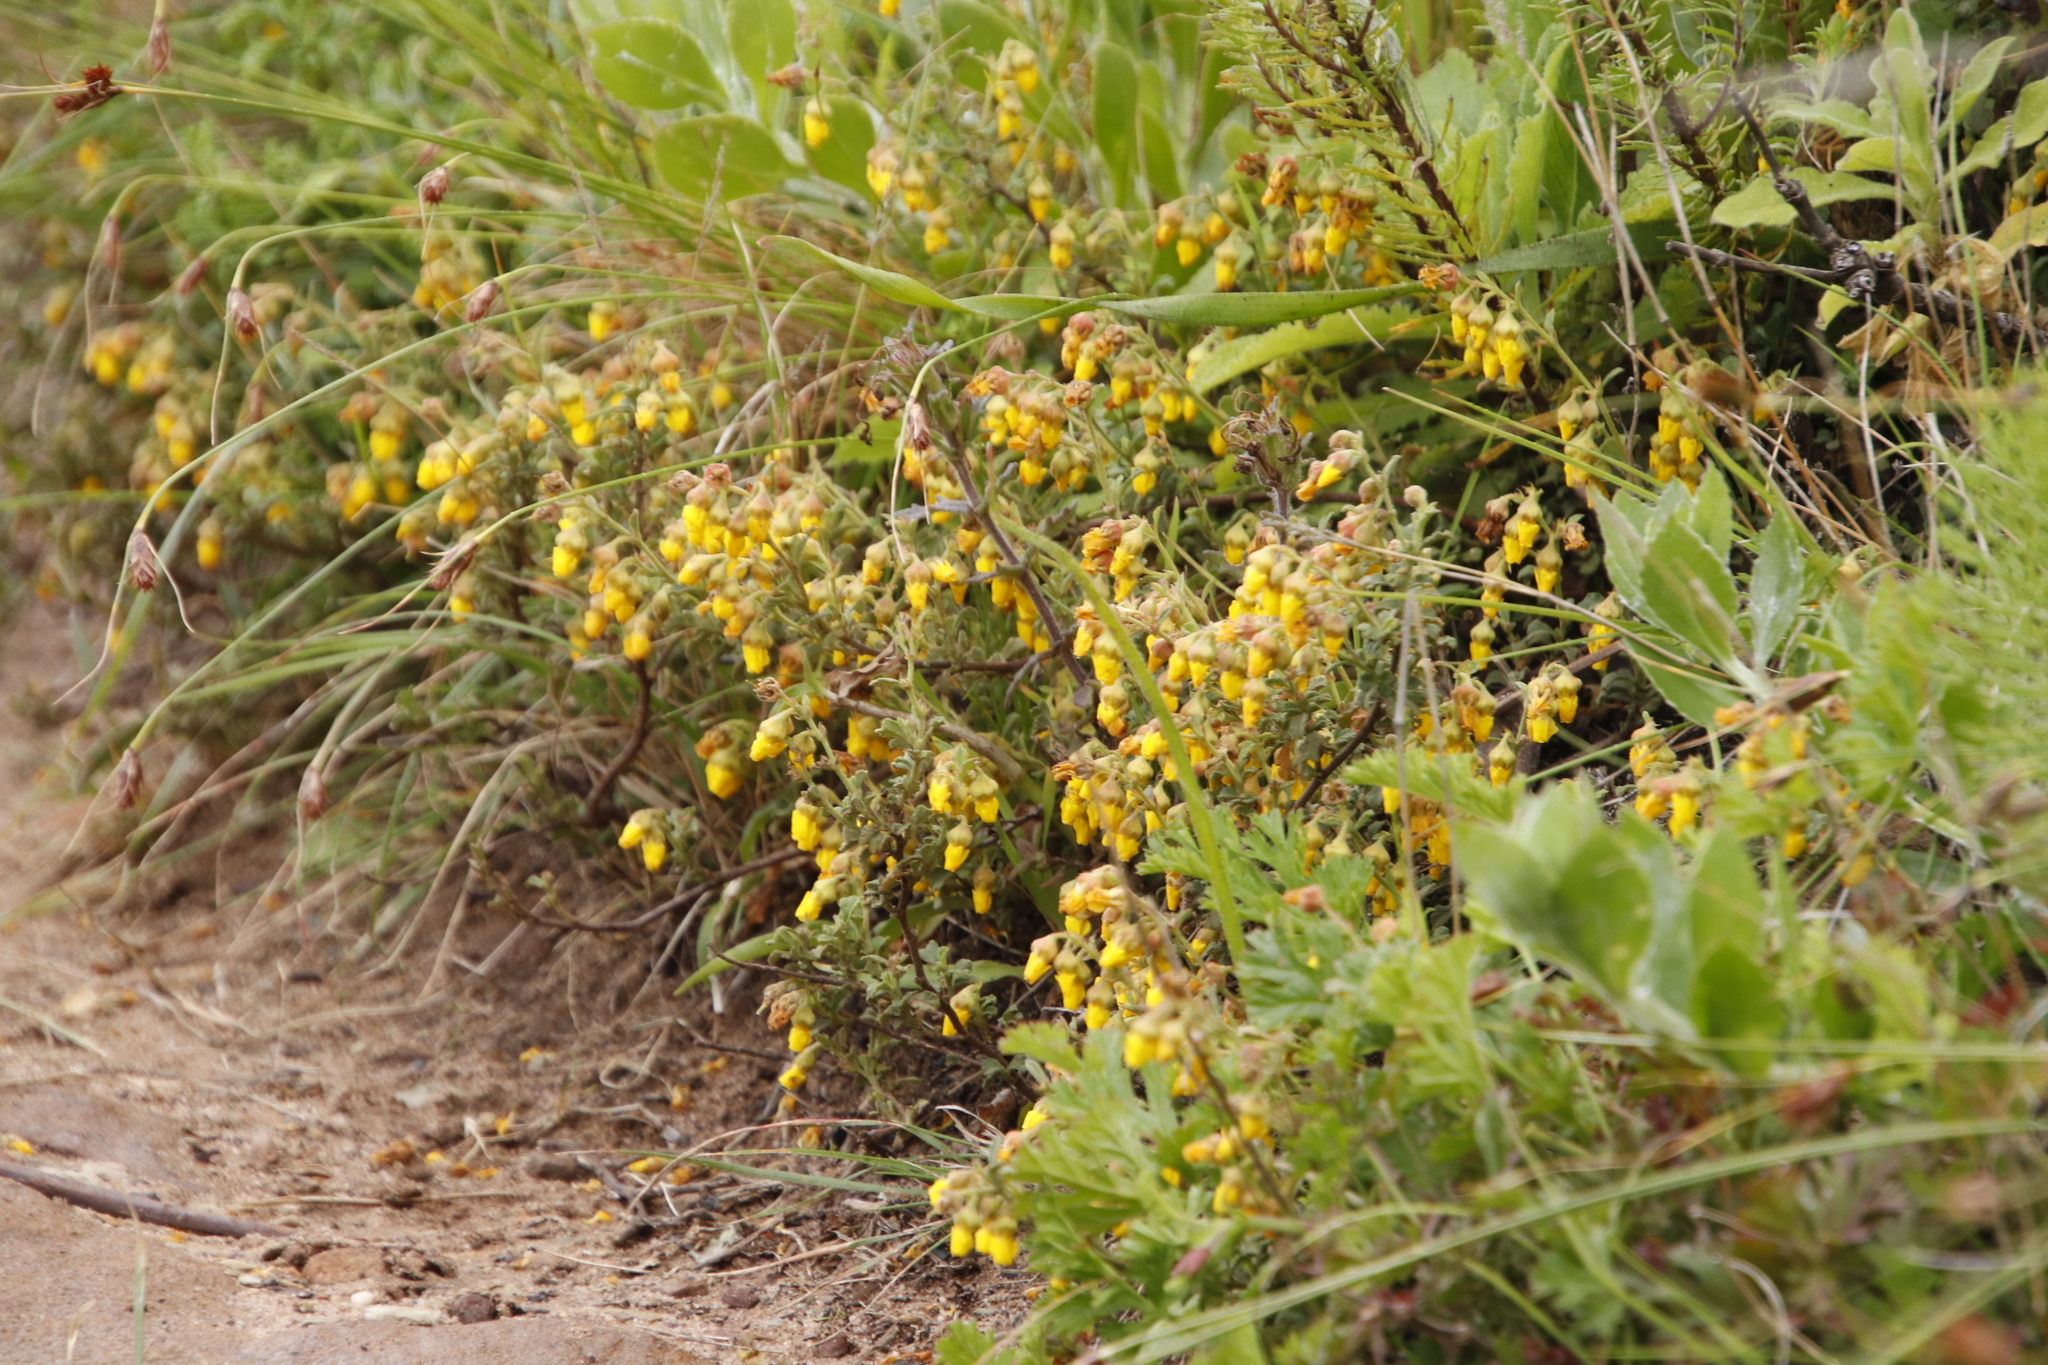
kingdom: Plantae
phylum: Tracheophyta
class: Magnoliopsida
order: Malvales
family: Malvaceae
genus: Hermannia
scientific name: Hermannia multiflora
